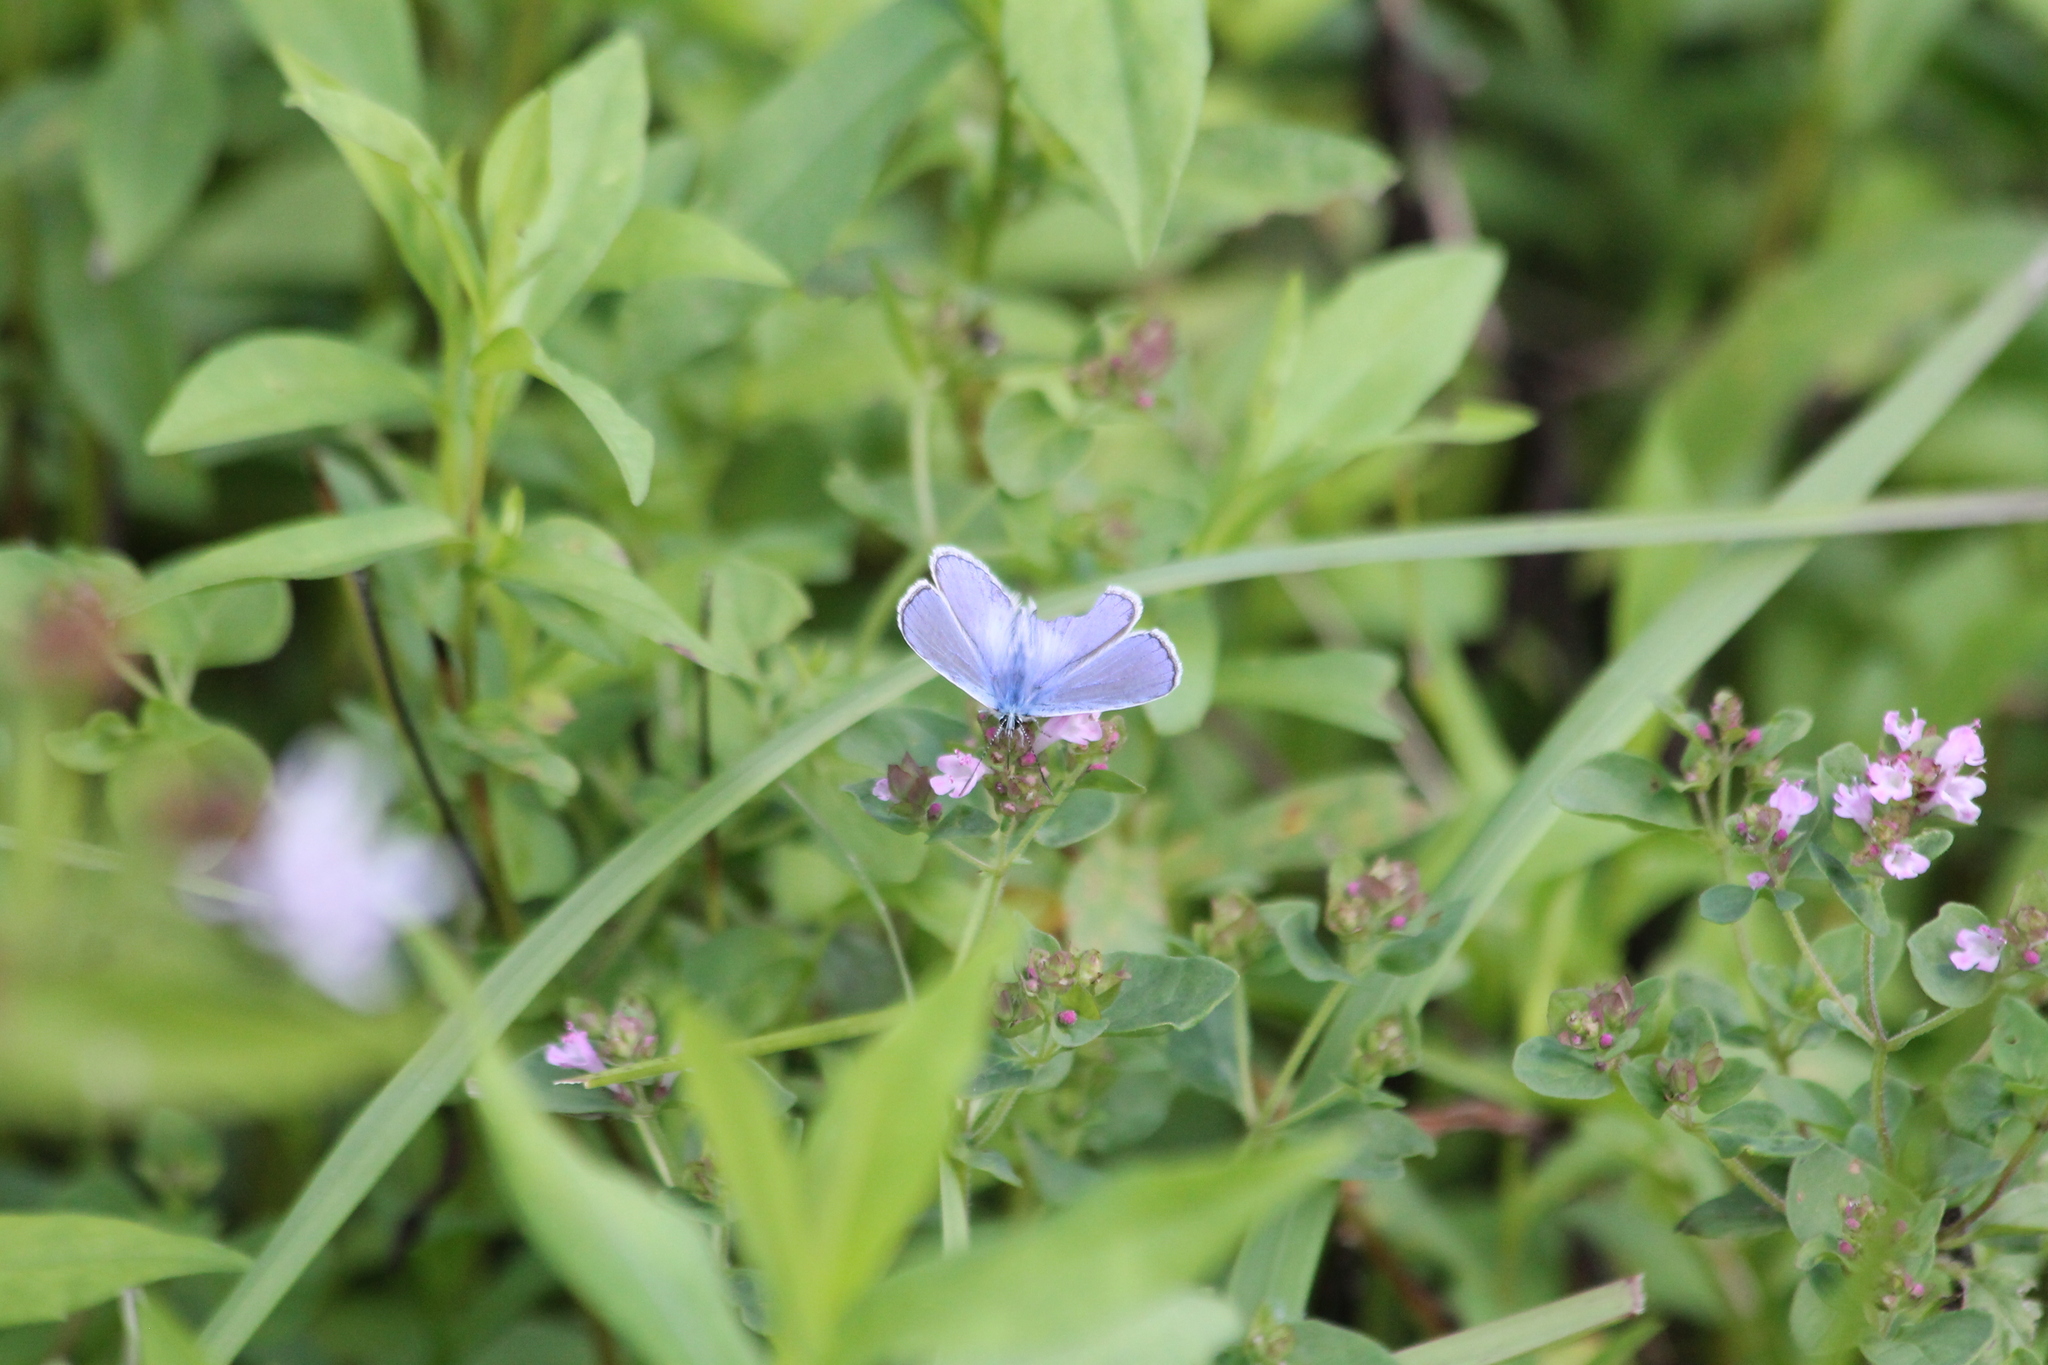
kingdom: Animalia
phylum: Arthropoda
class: Insecta
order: Lepidoptera
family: Lycaenidae
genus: Polyommatus
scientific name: Polyommatus icarus
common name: Common blue
